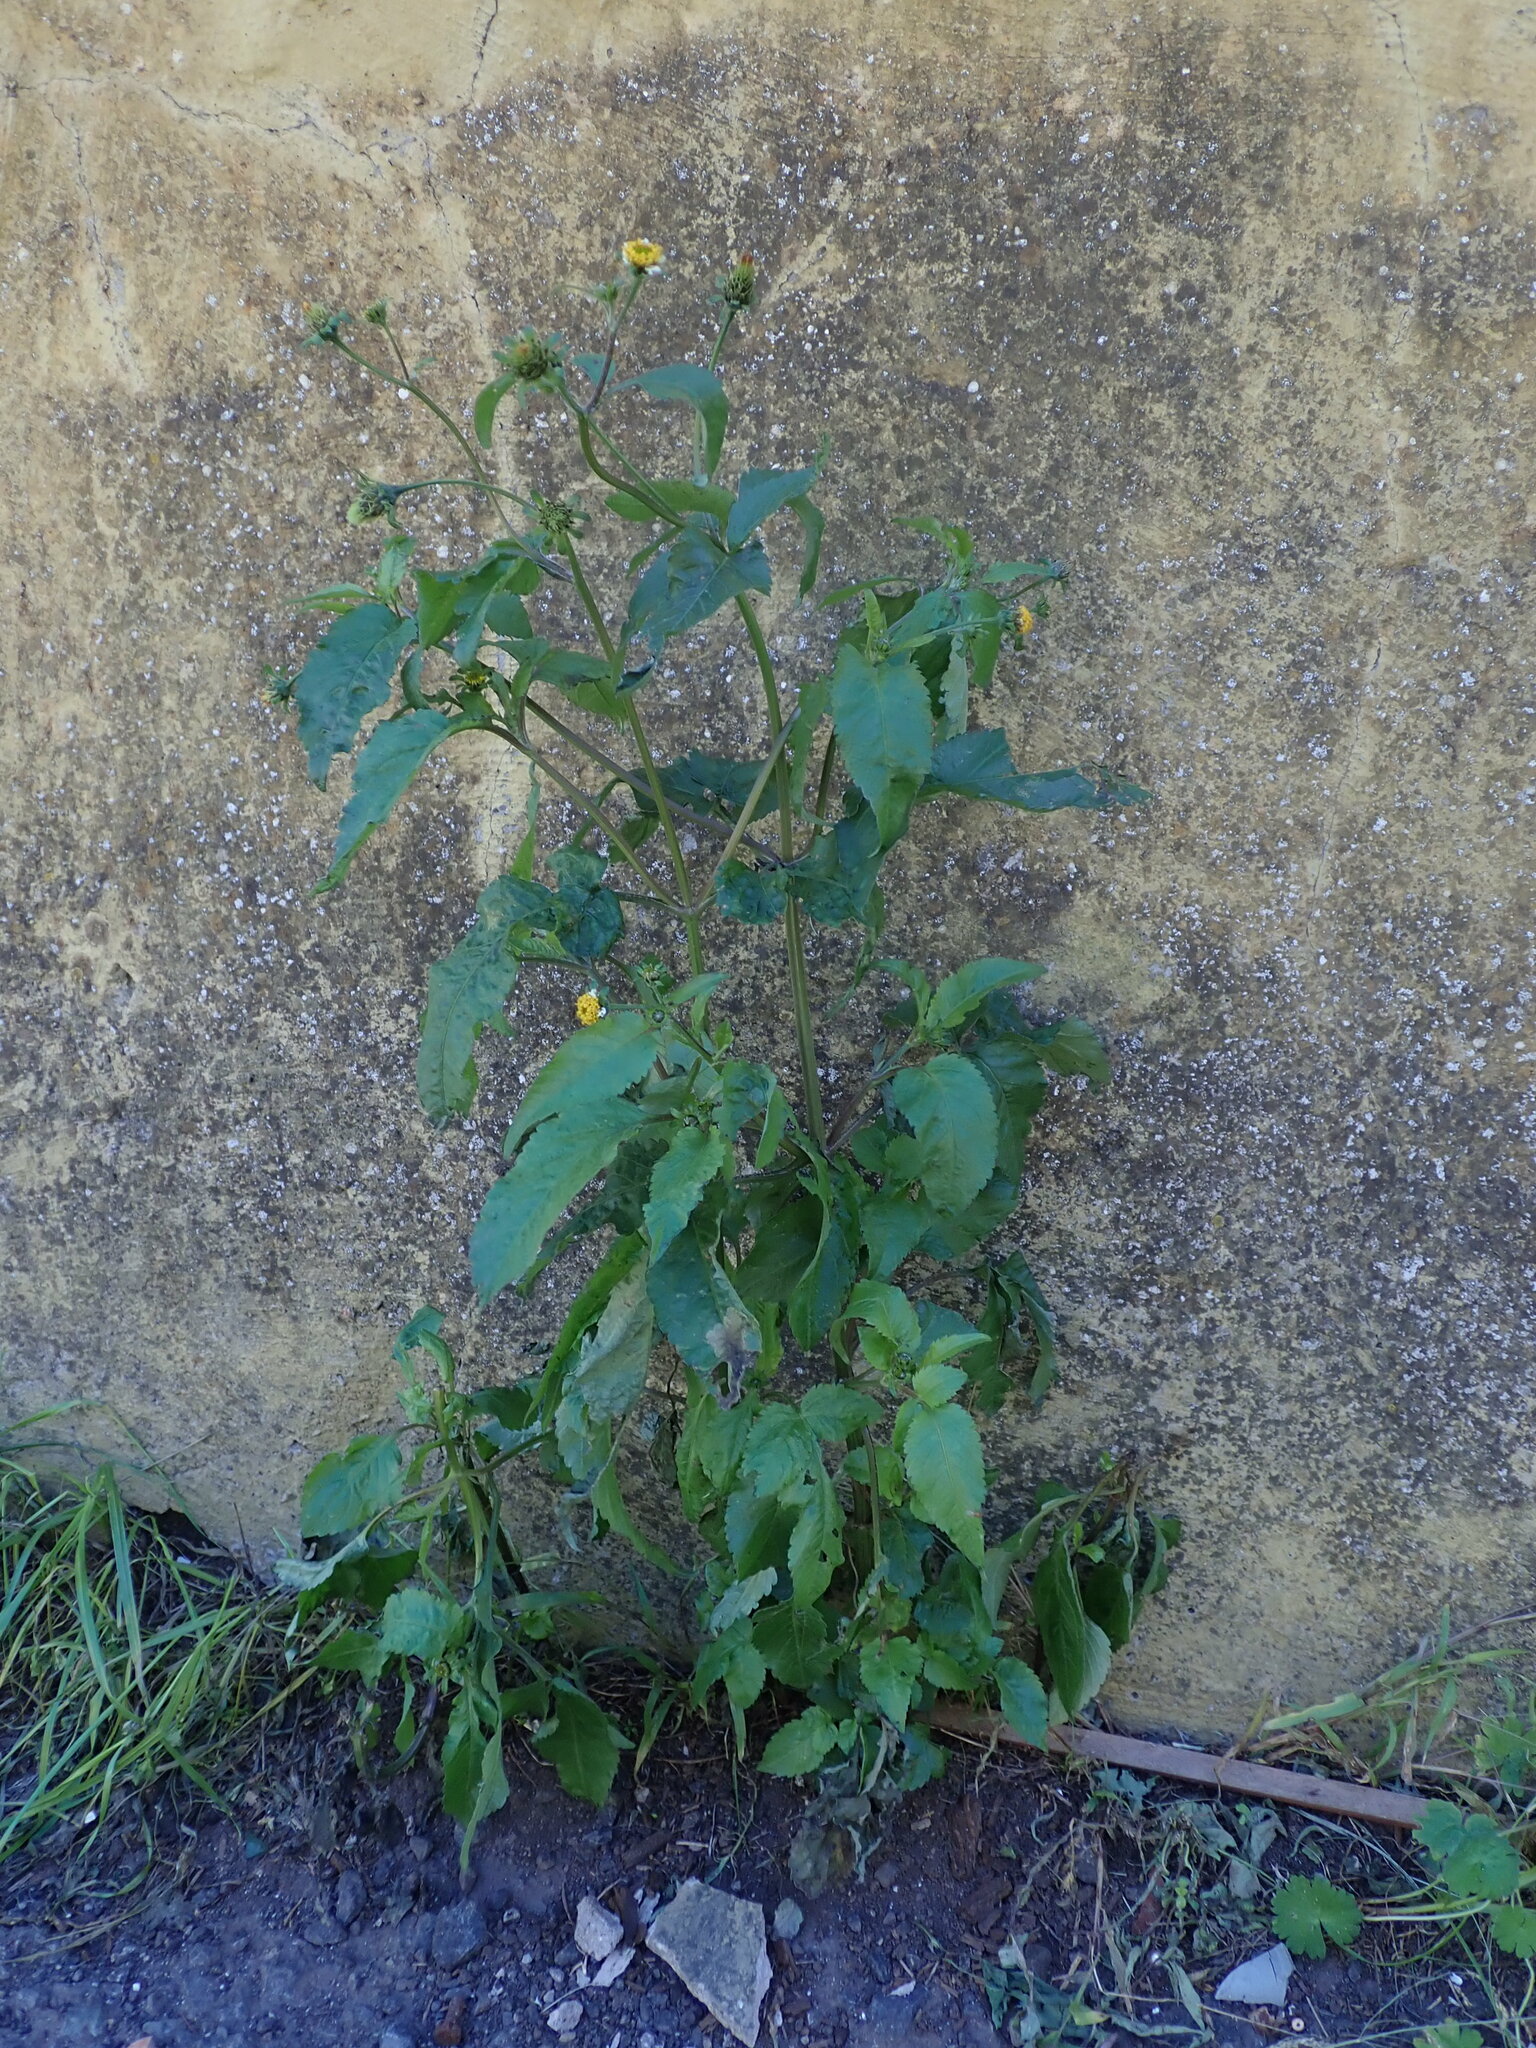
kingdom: Plantae
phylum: Tracheophyta
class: Magnoliopsida
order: Asterales
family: Asteraceae
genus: Bidens
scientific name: Bidens pilosa
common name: Black-jack
